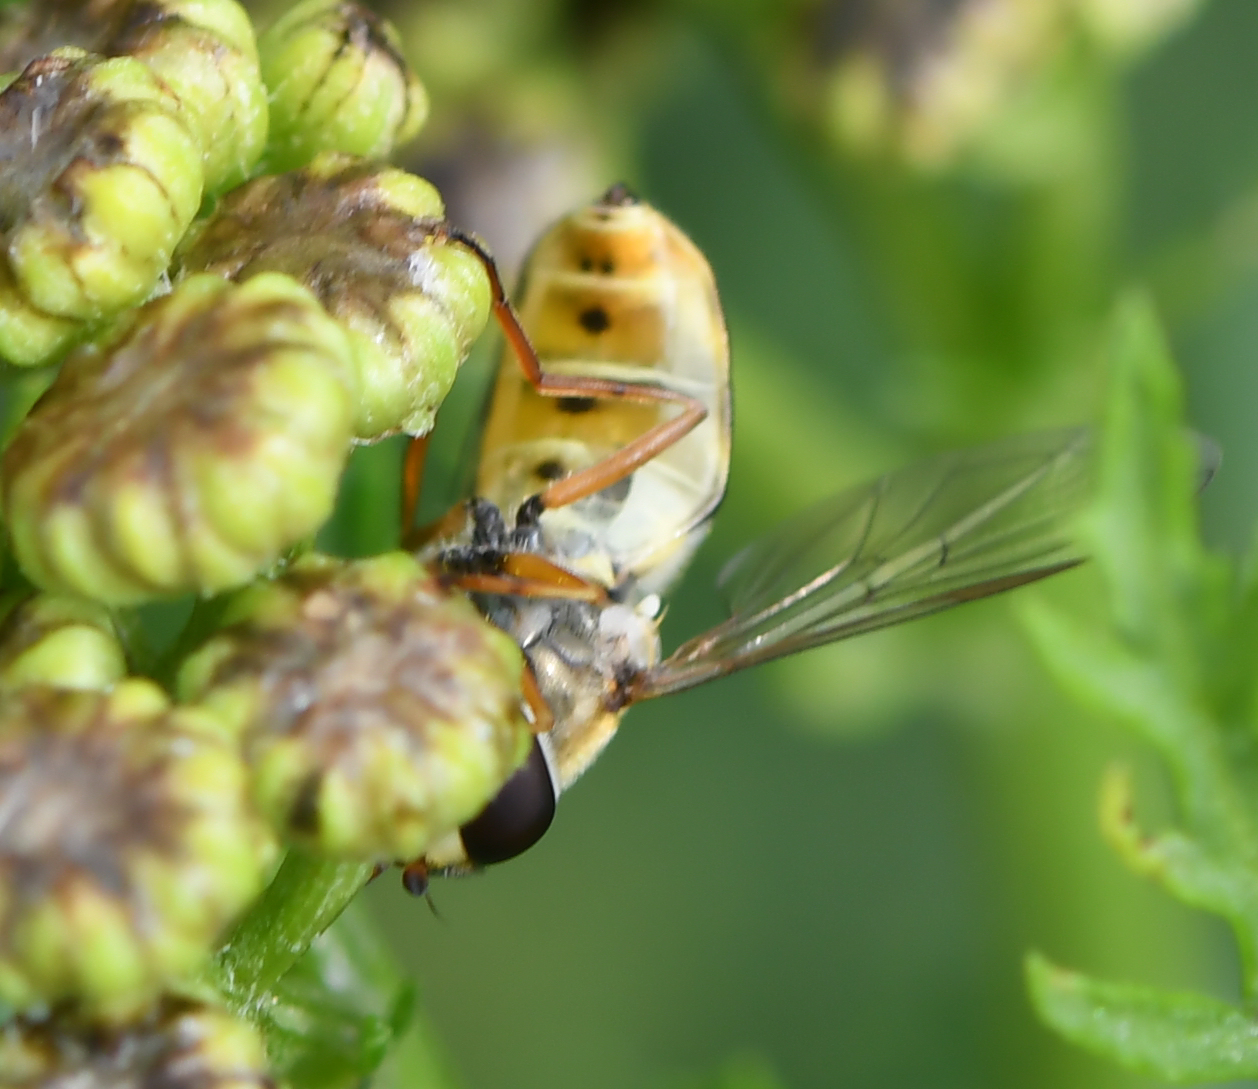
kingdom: Animalia
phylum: Arthropoda
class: Insecta
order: Diptera
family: Syrphidae
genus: Meliscaeva
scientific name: Meliscaeva auricollis
